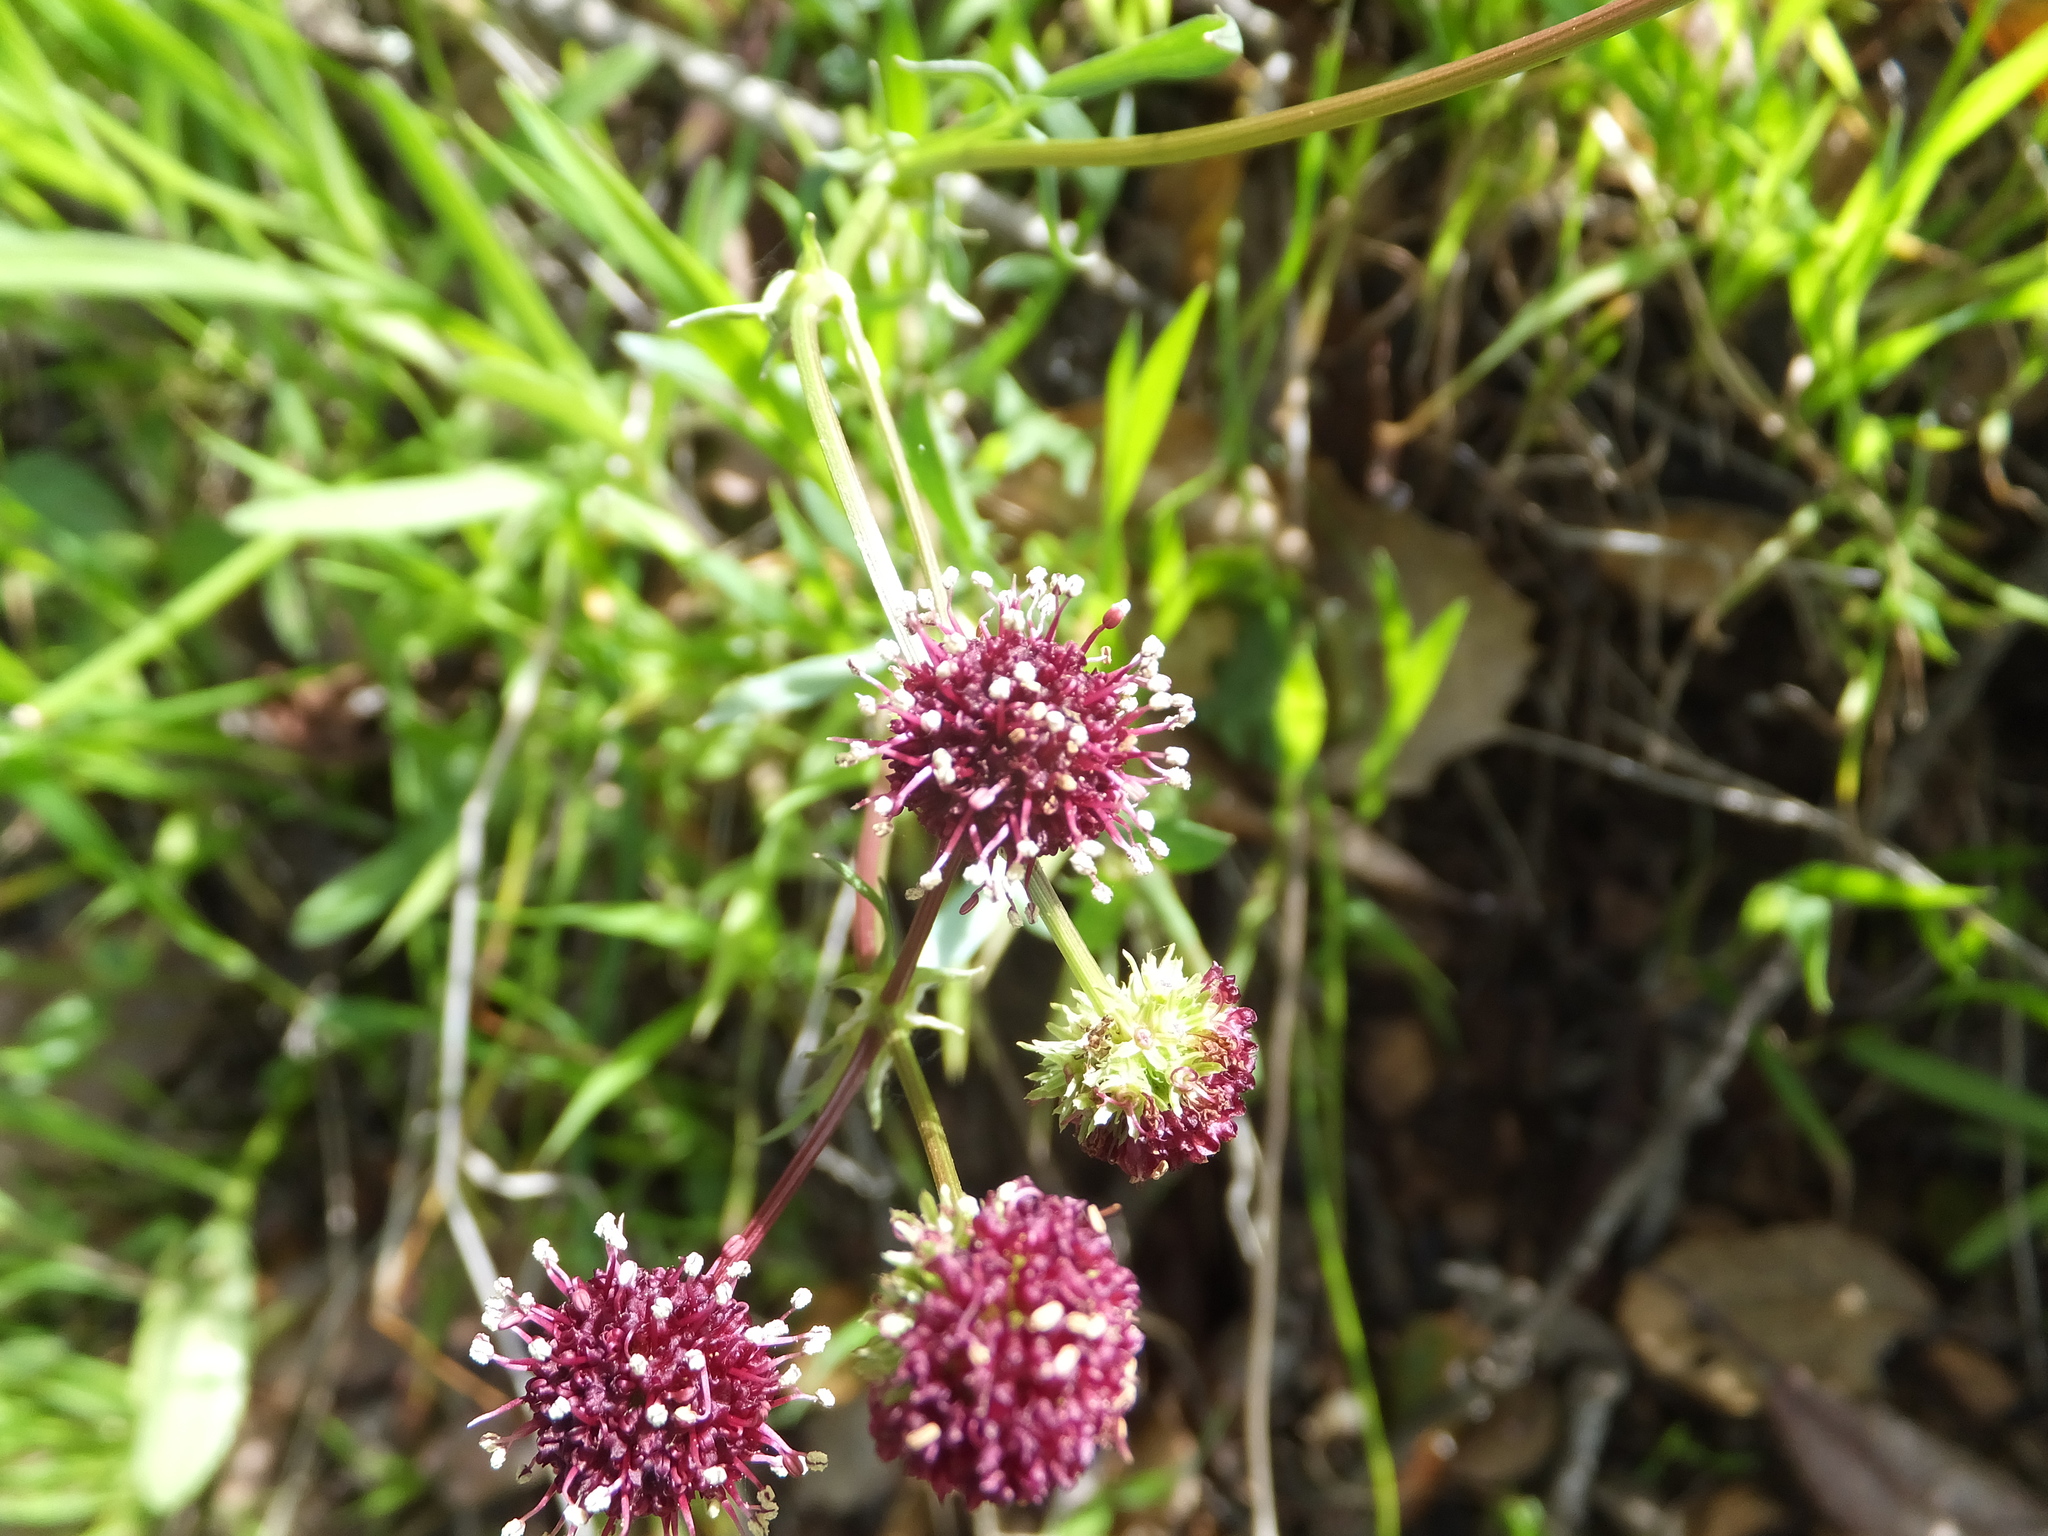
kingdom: Plantae
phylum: Tracheophyta
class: Magnoliopsida
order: Apiales
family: Apiaceae
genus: Sanicula
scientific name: Sanicula bipinnatifida
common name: Shoe-buttons
